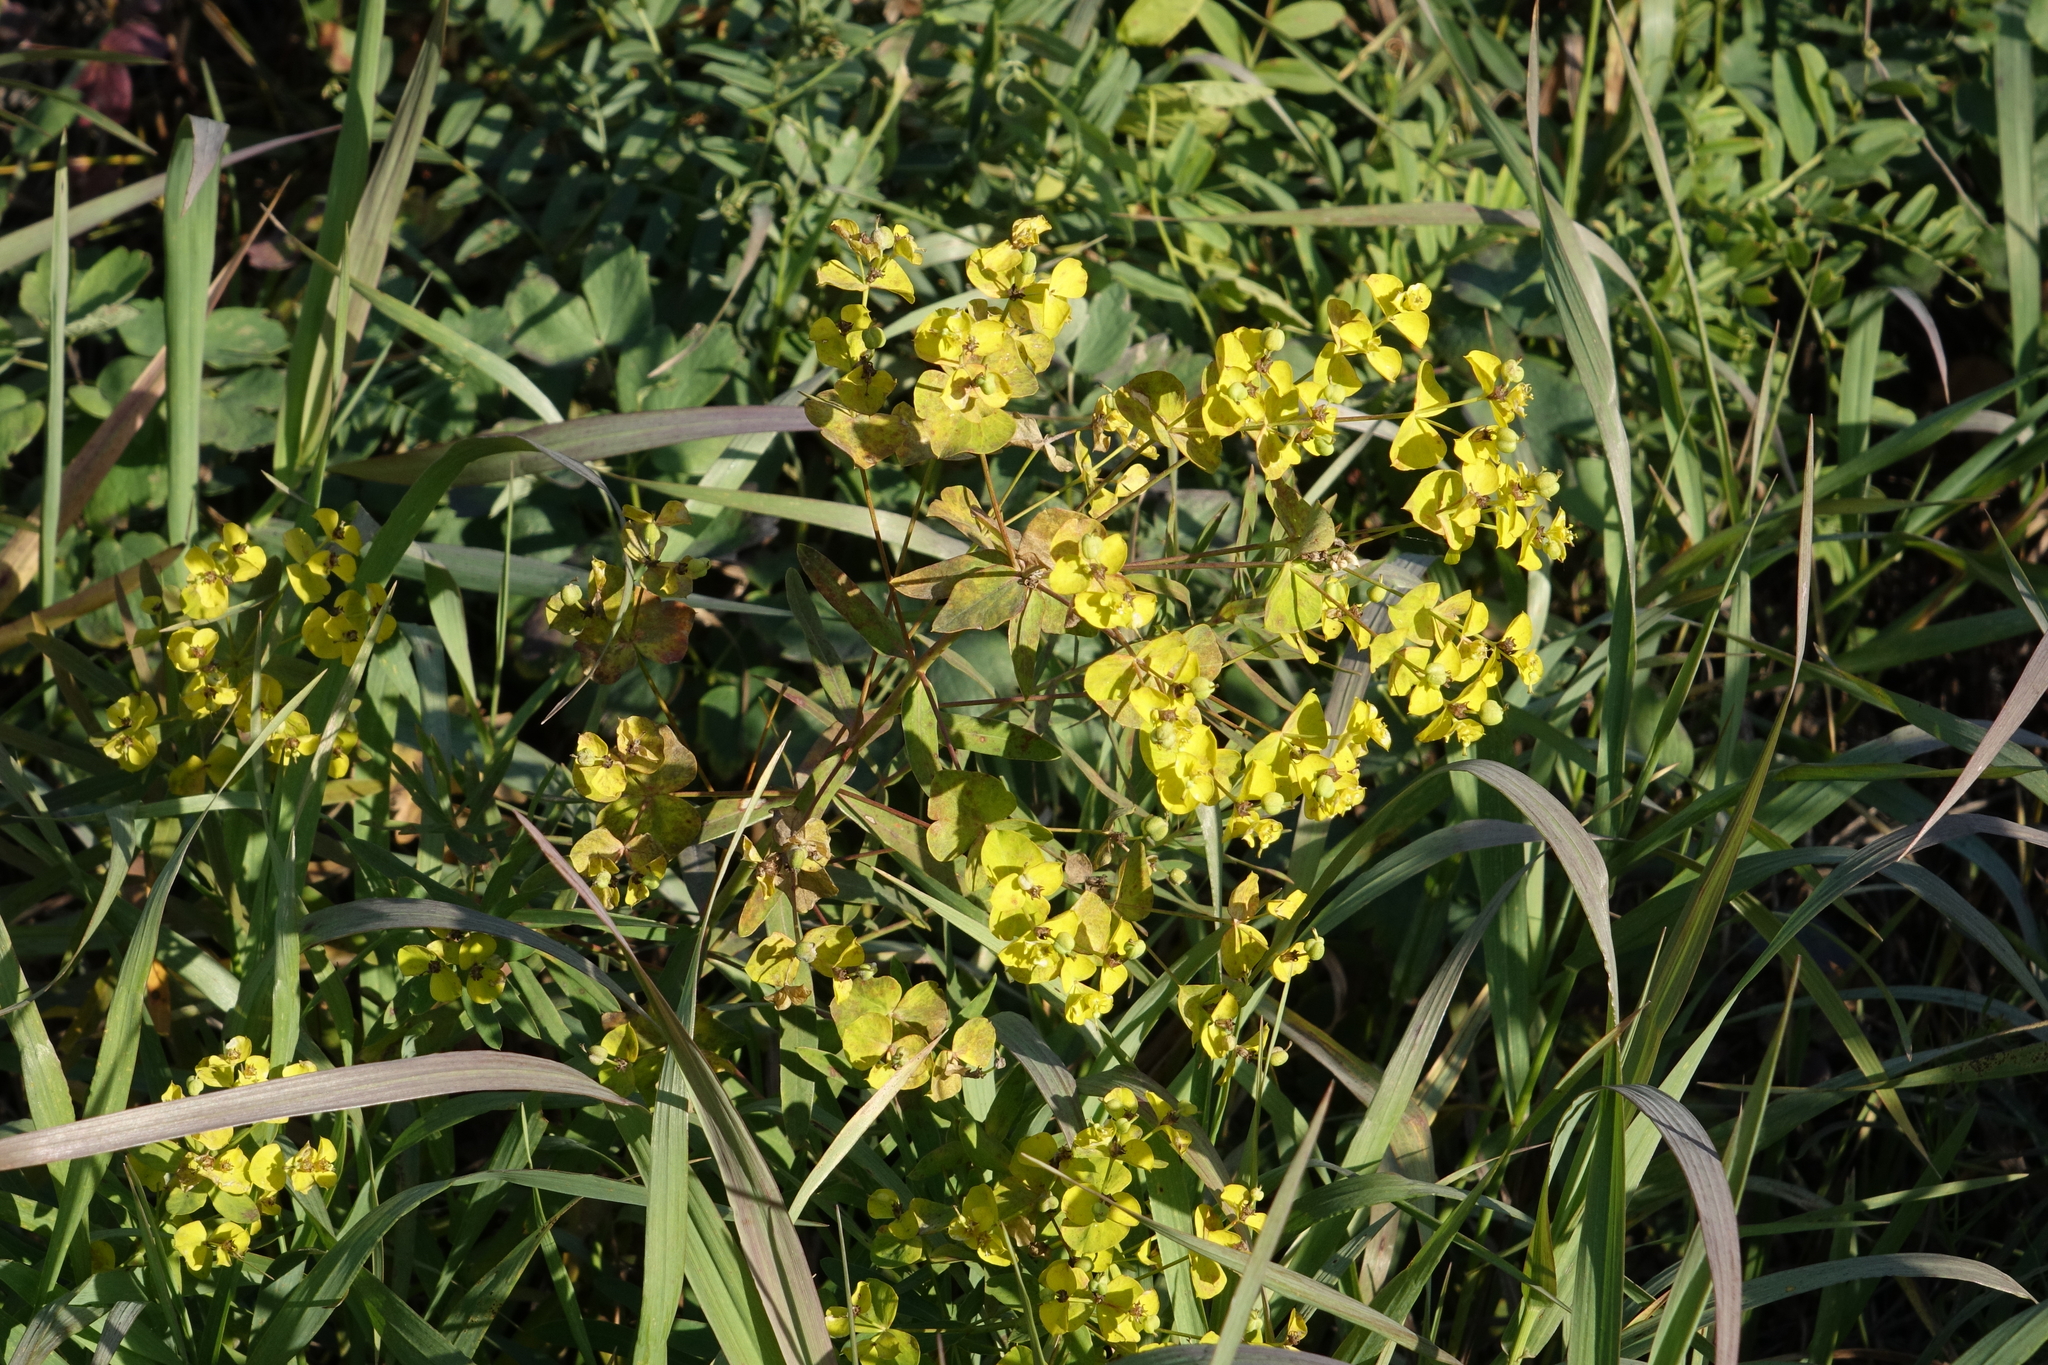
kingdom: Plantae
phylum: Tracheophyta
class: Magnoliopsida
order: Malpighiales
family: Euphorbiaceae
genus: Euphorbia
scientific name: Euphorbia virgata
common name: Leafy spurge
